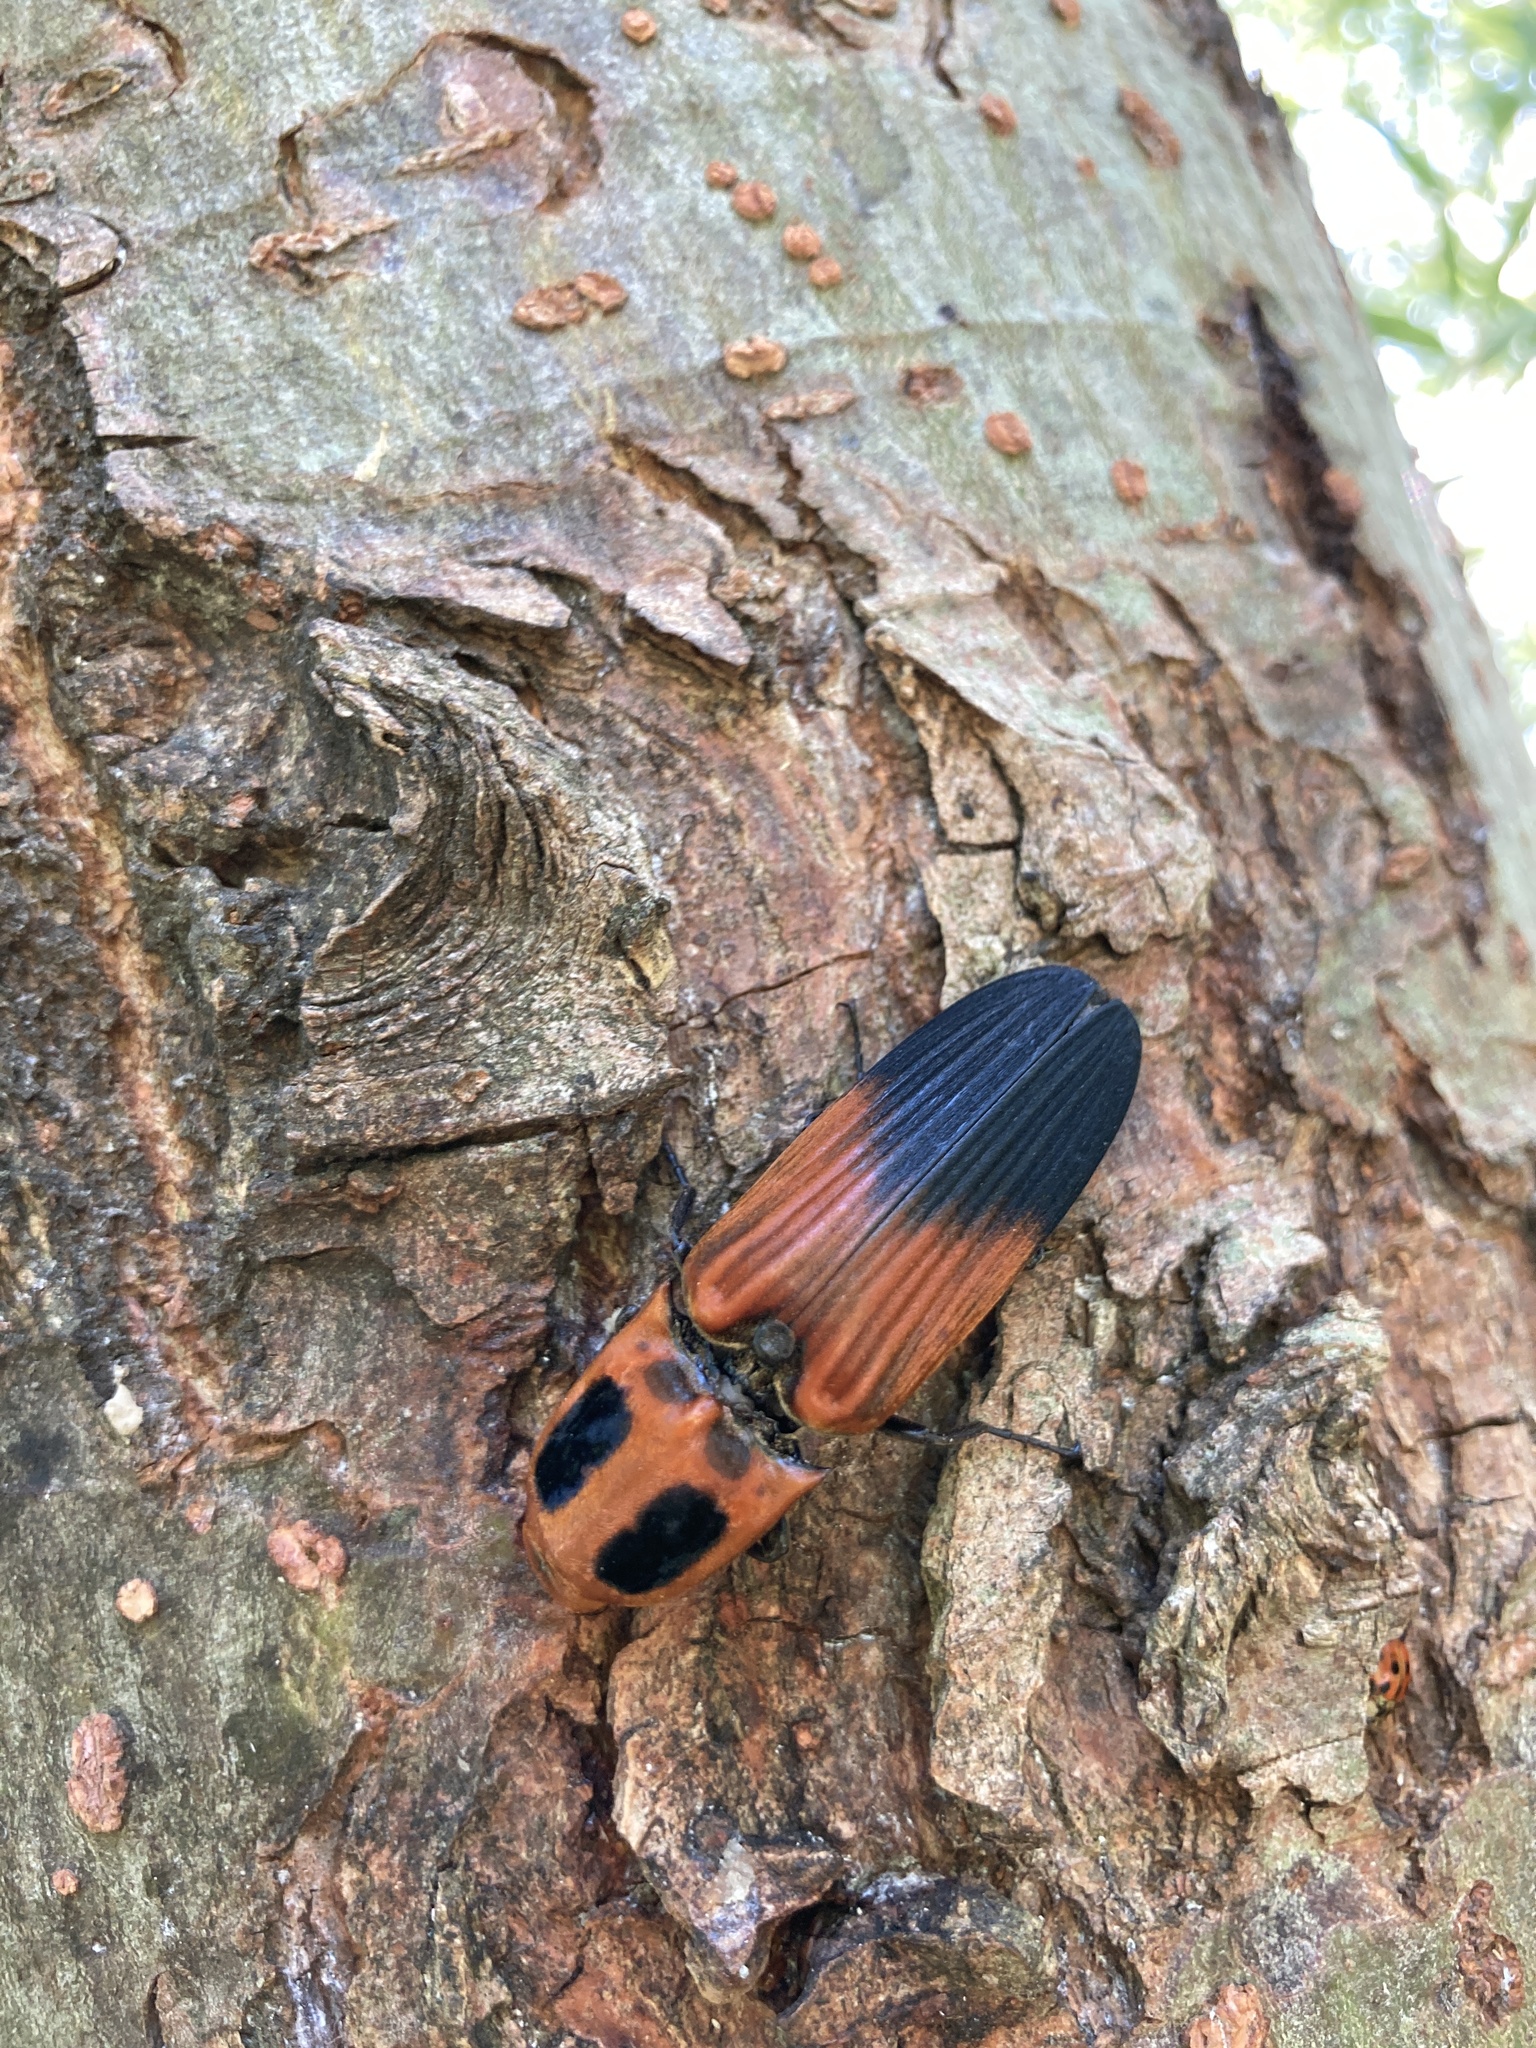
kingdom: Animalia
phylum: Arthropoda
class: Insecta
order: Coleoptera
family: Elateridae
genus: Hemirhipus
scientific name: Hemirhipus
